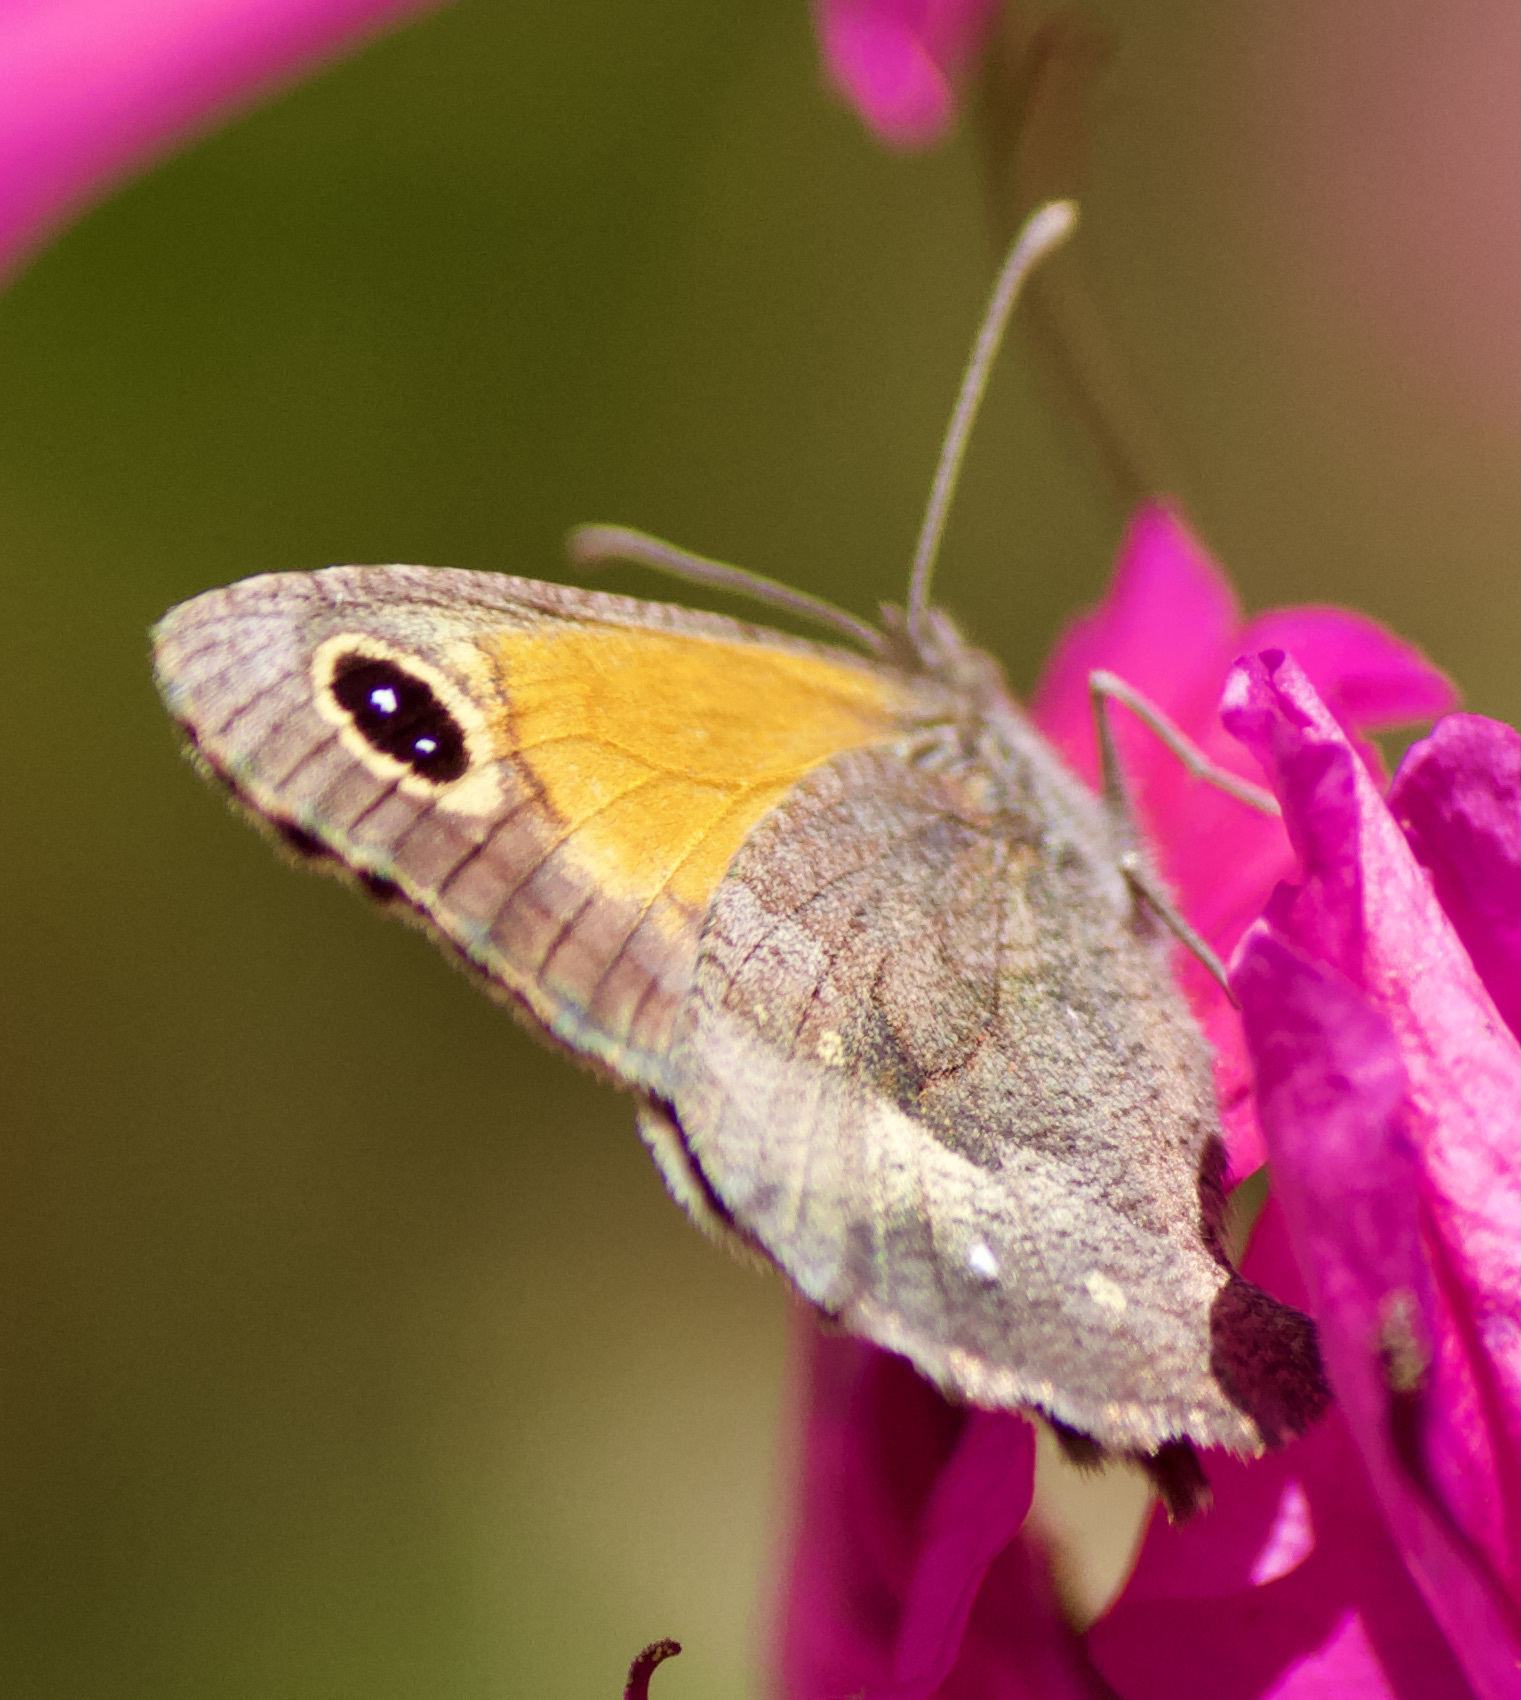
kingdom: Animalia
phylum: Arthropoda
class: Insecta
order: Lepidoptera
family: Nymphalidae
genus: Auca
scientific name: Auca barrosi
